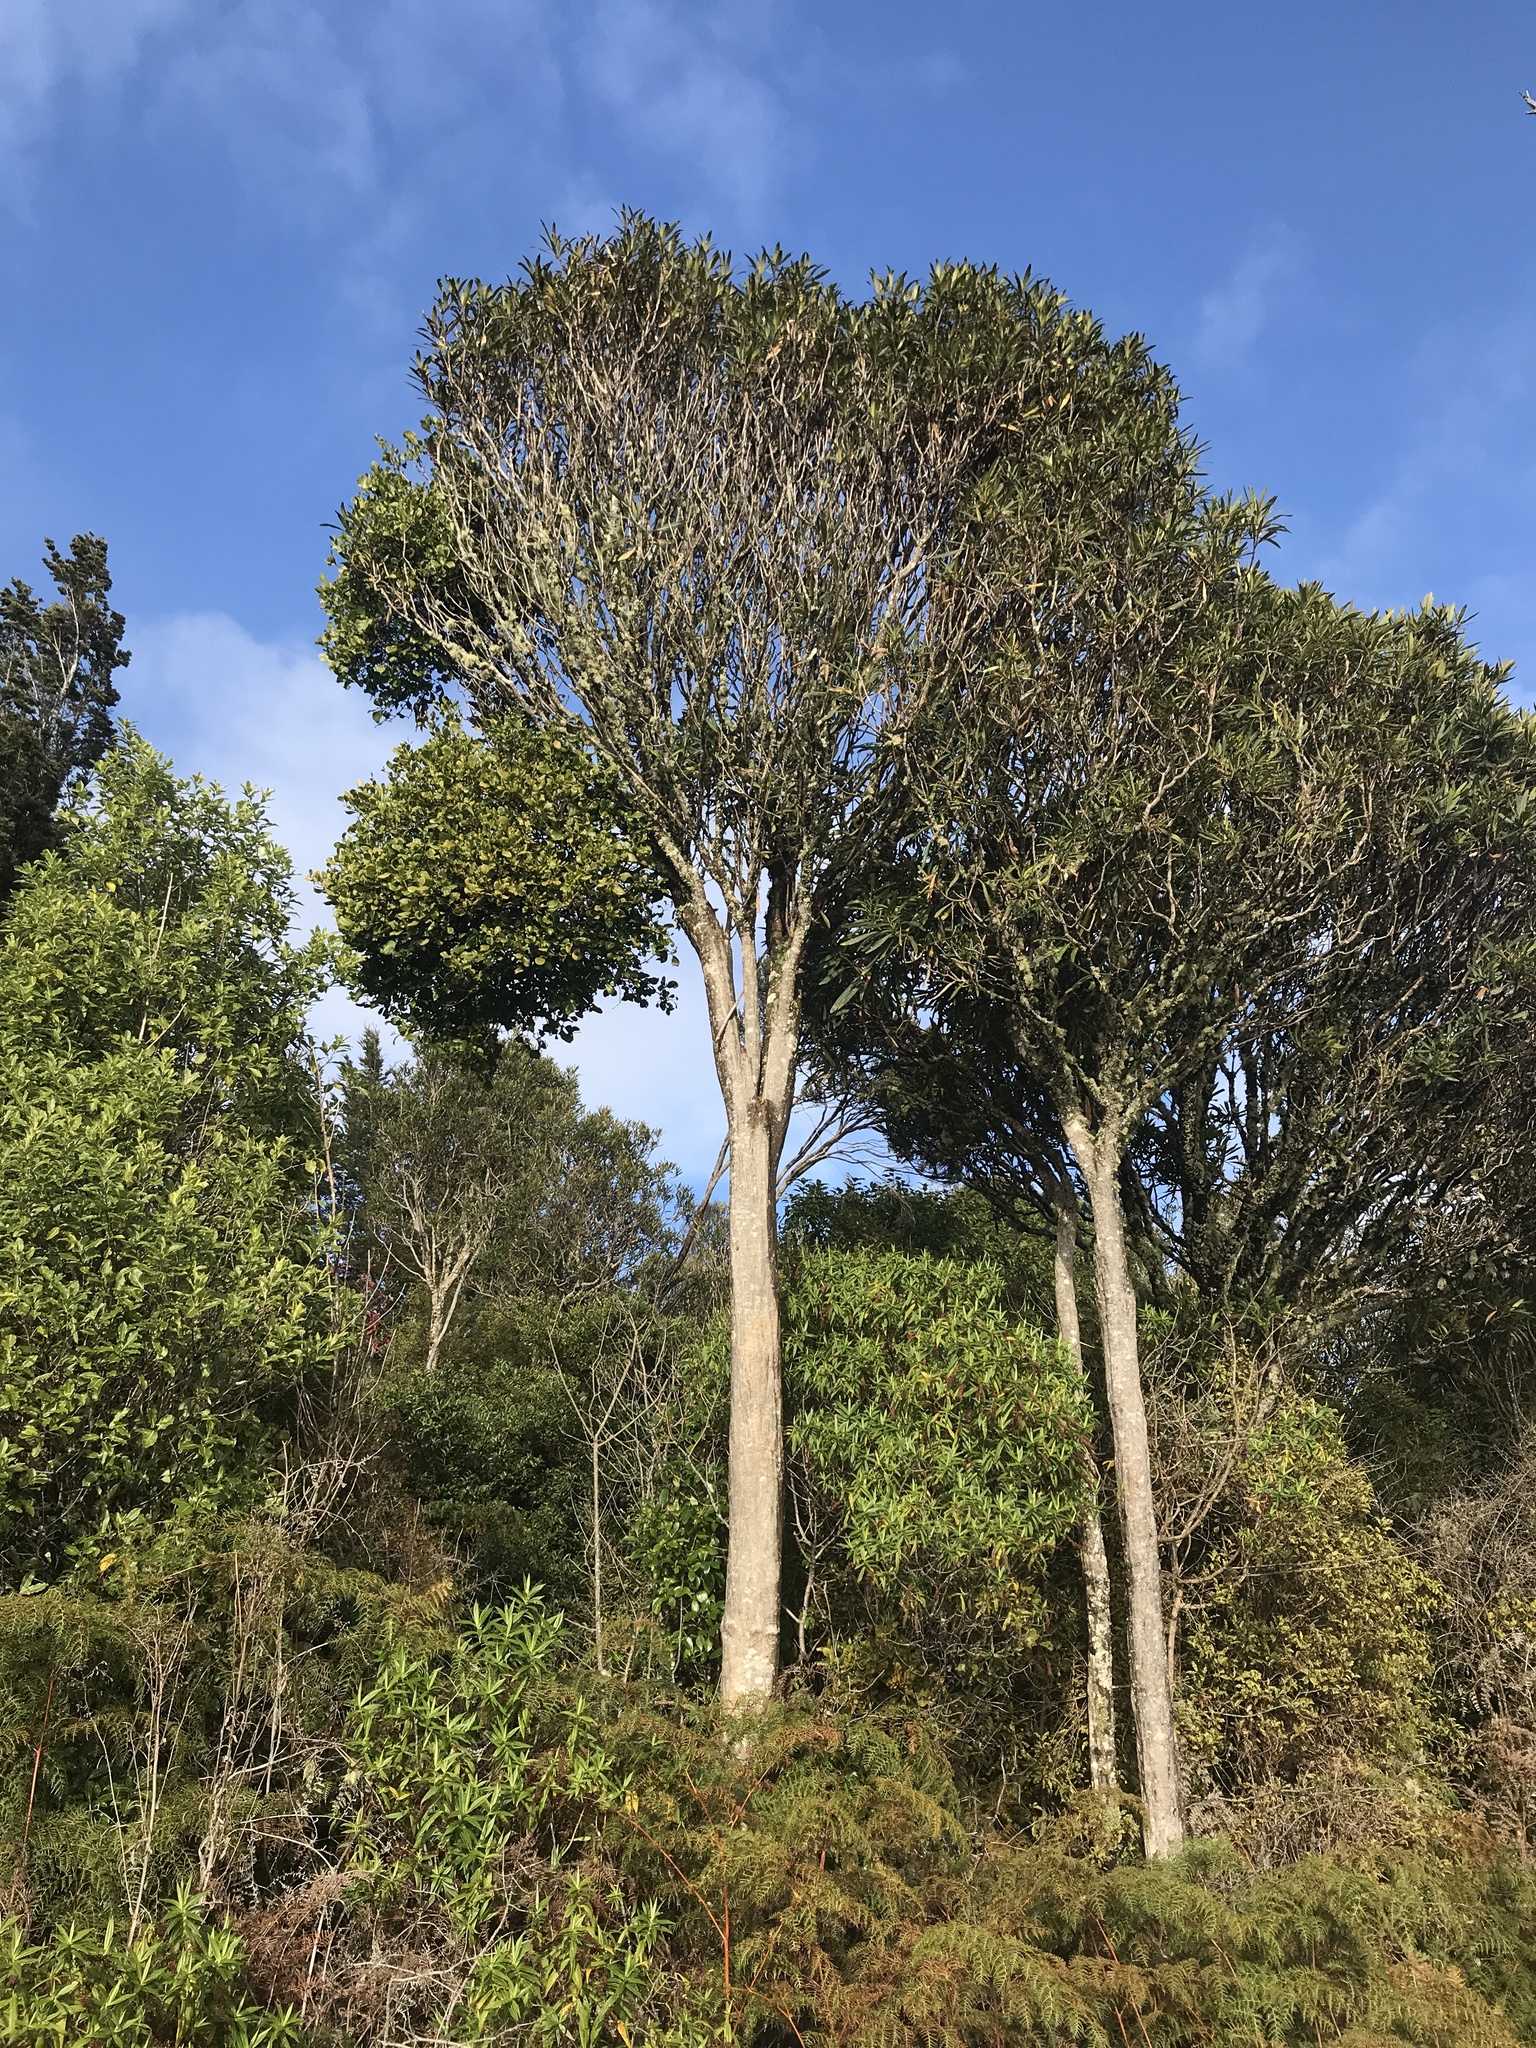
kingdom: Plantae
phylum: Tracheophyta
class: Magnoliopsida
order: Santalales
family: Loranthaceae
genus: Ileostylus
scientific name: Ileostylus micranthus
